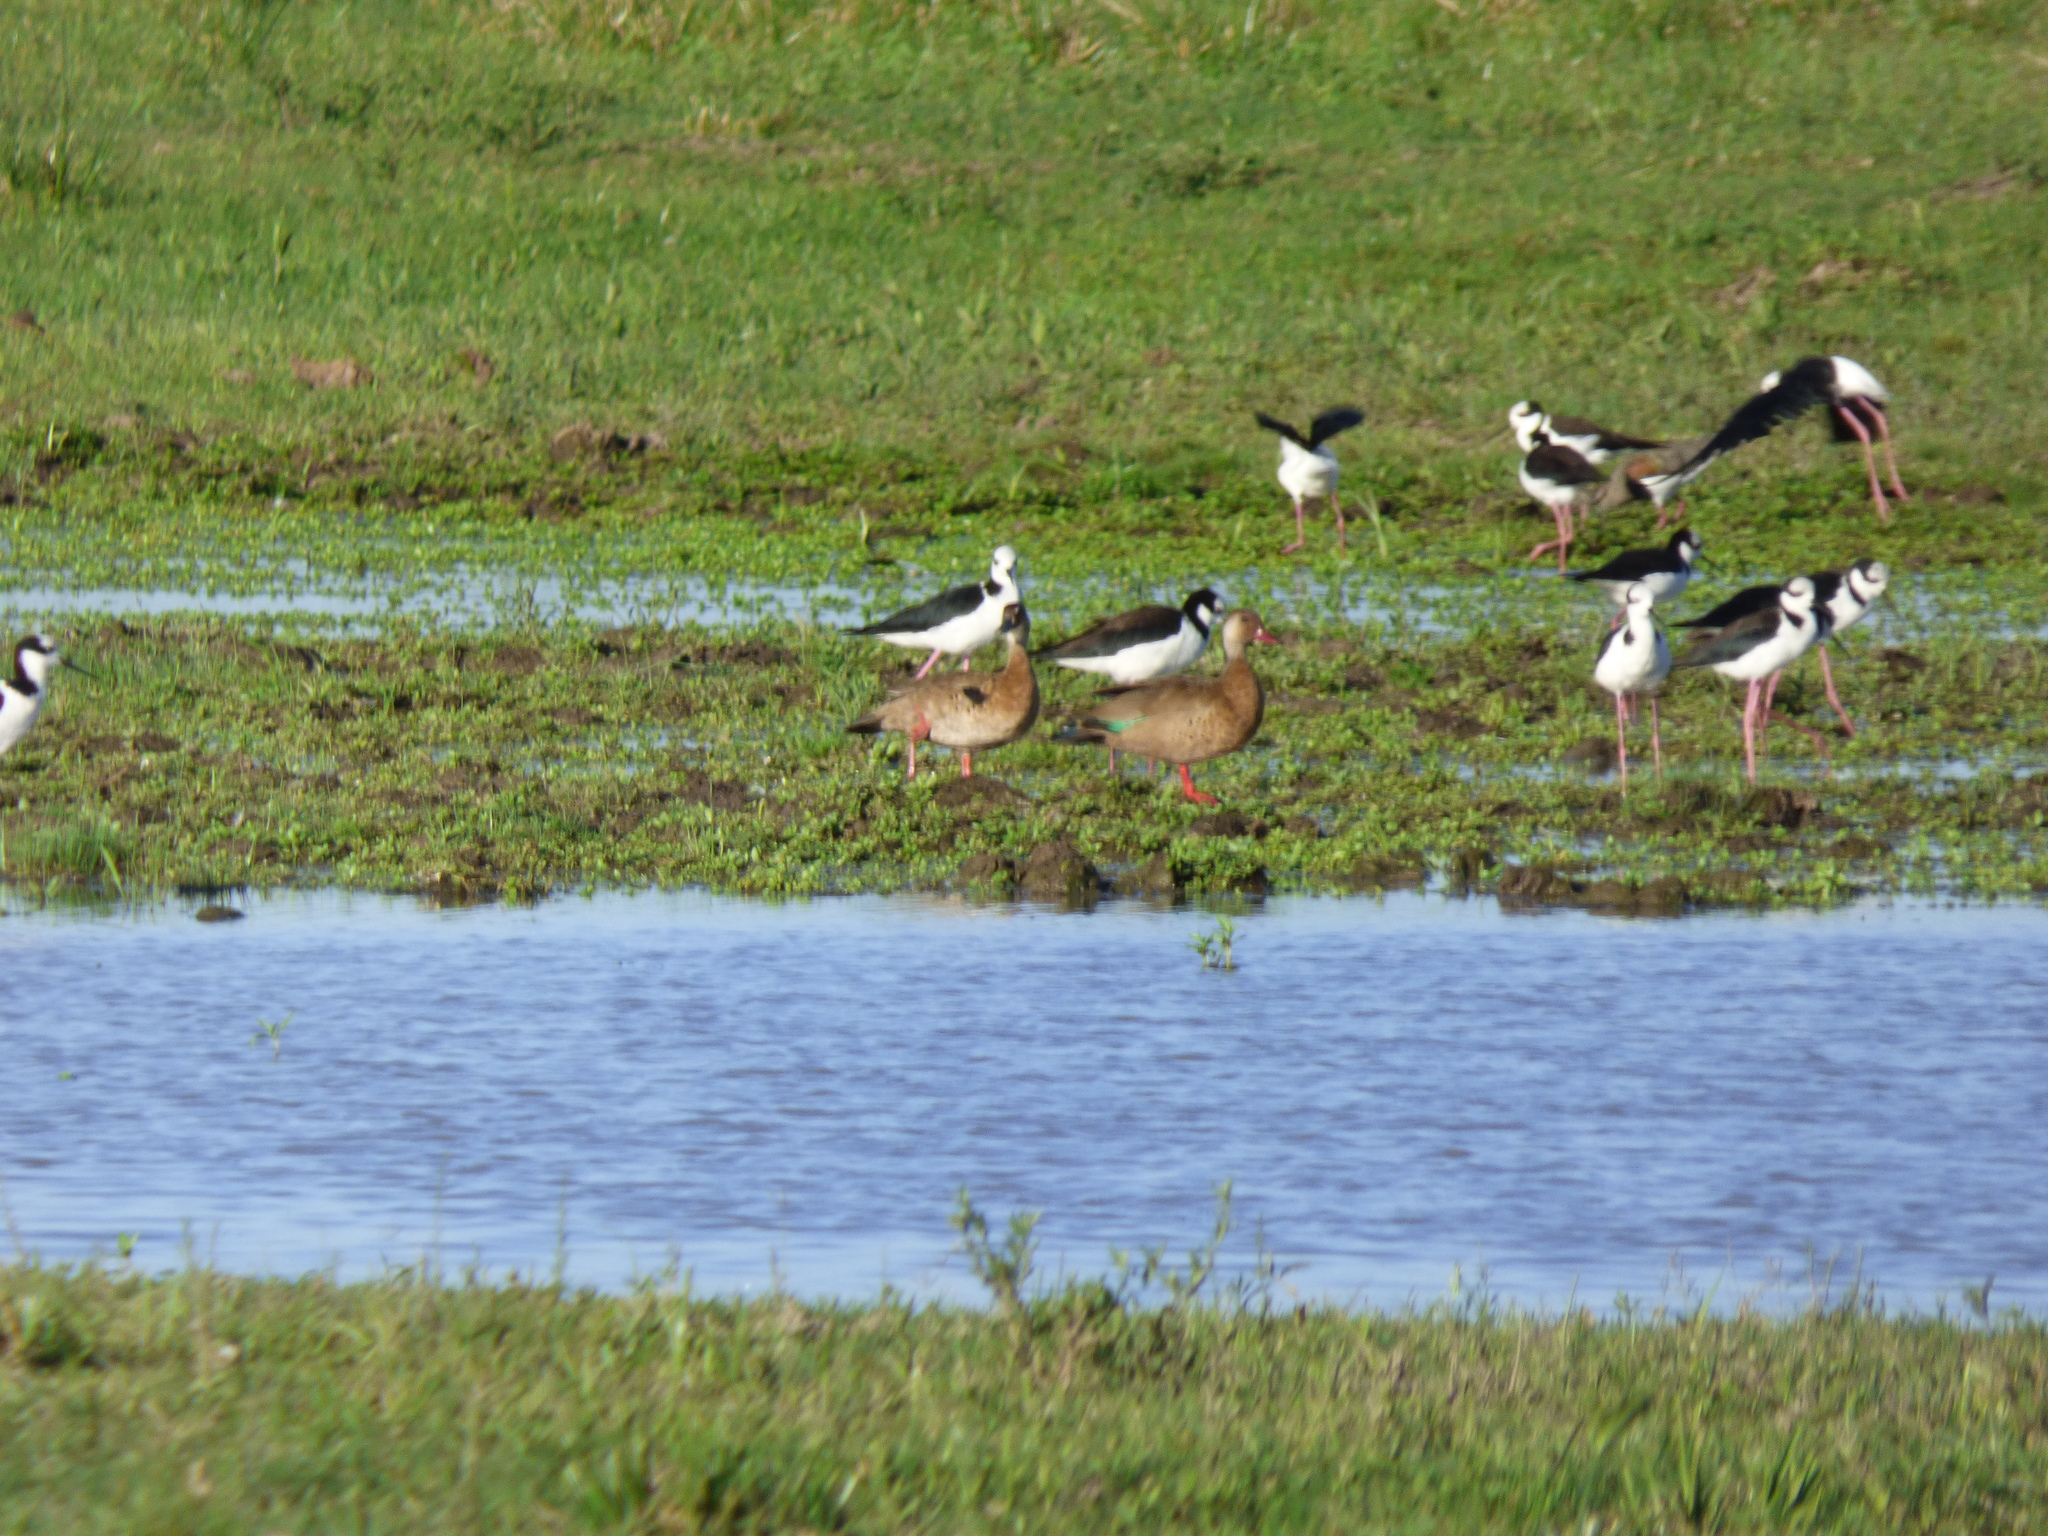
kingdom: Animalia
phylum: Chordata
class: Aves
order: Anseriformes
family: Anatidae
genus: Amazonetta
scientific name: Amazonetta brasiliensis
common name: Brazilian teal
